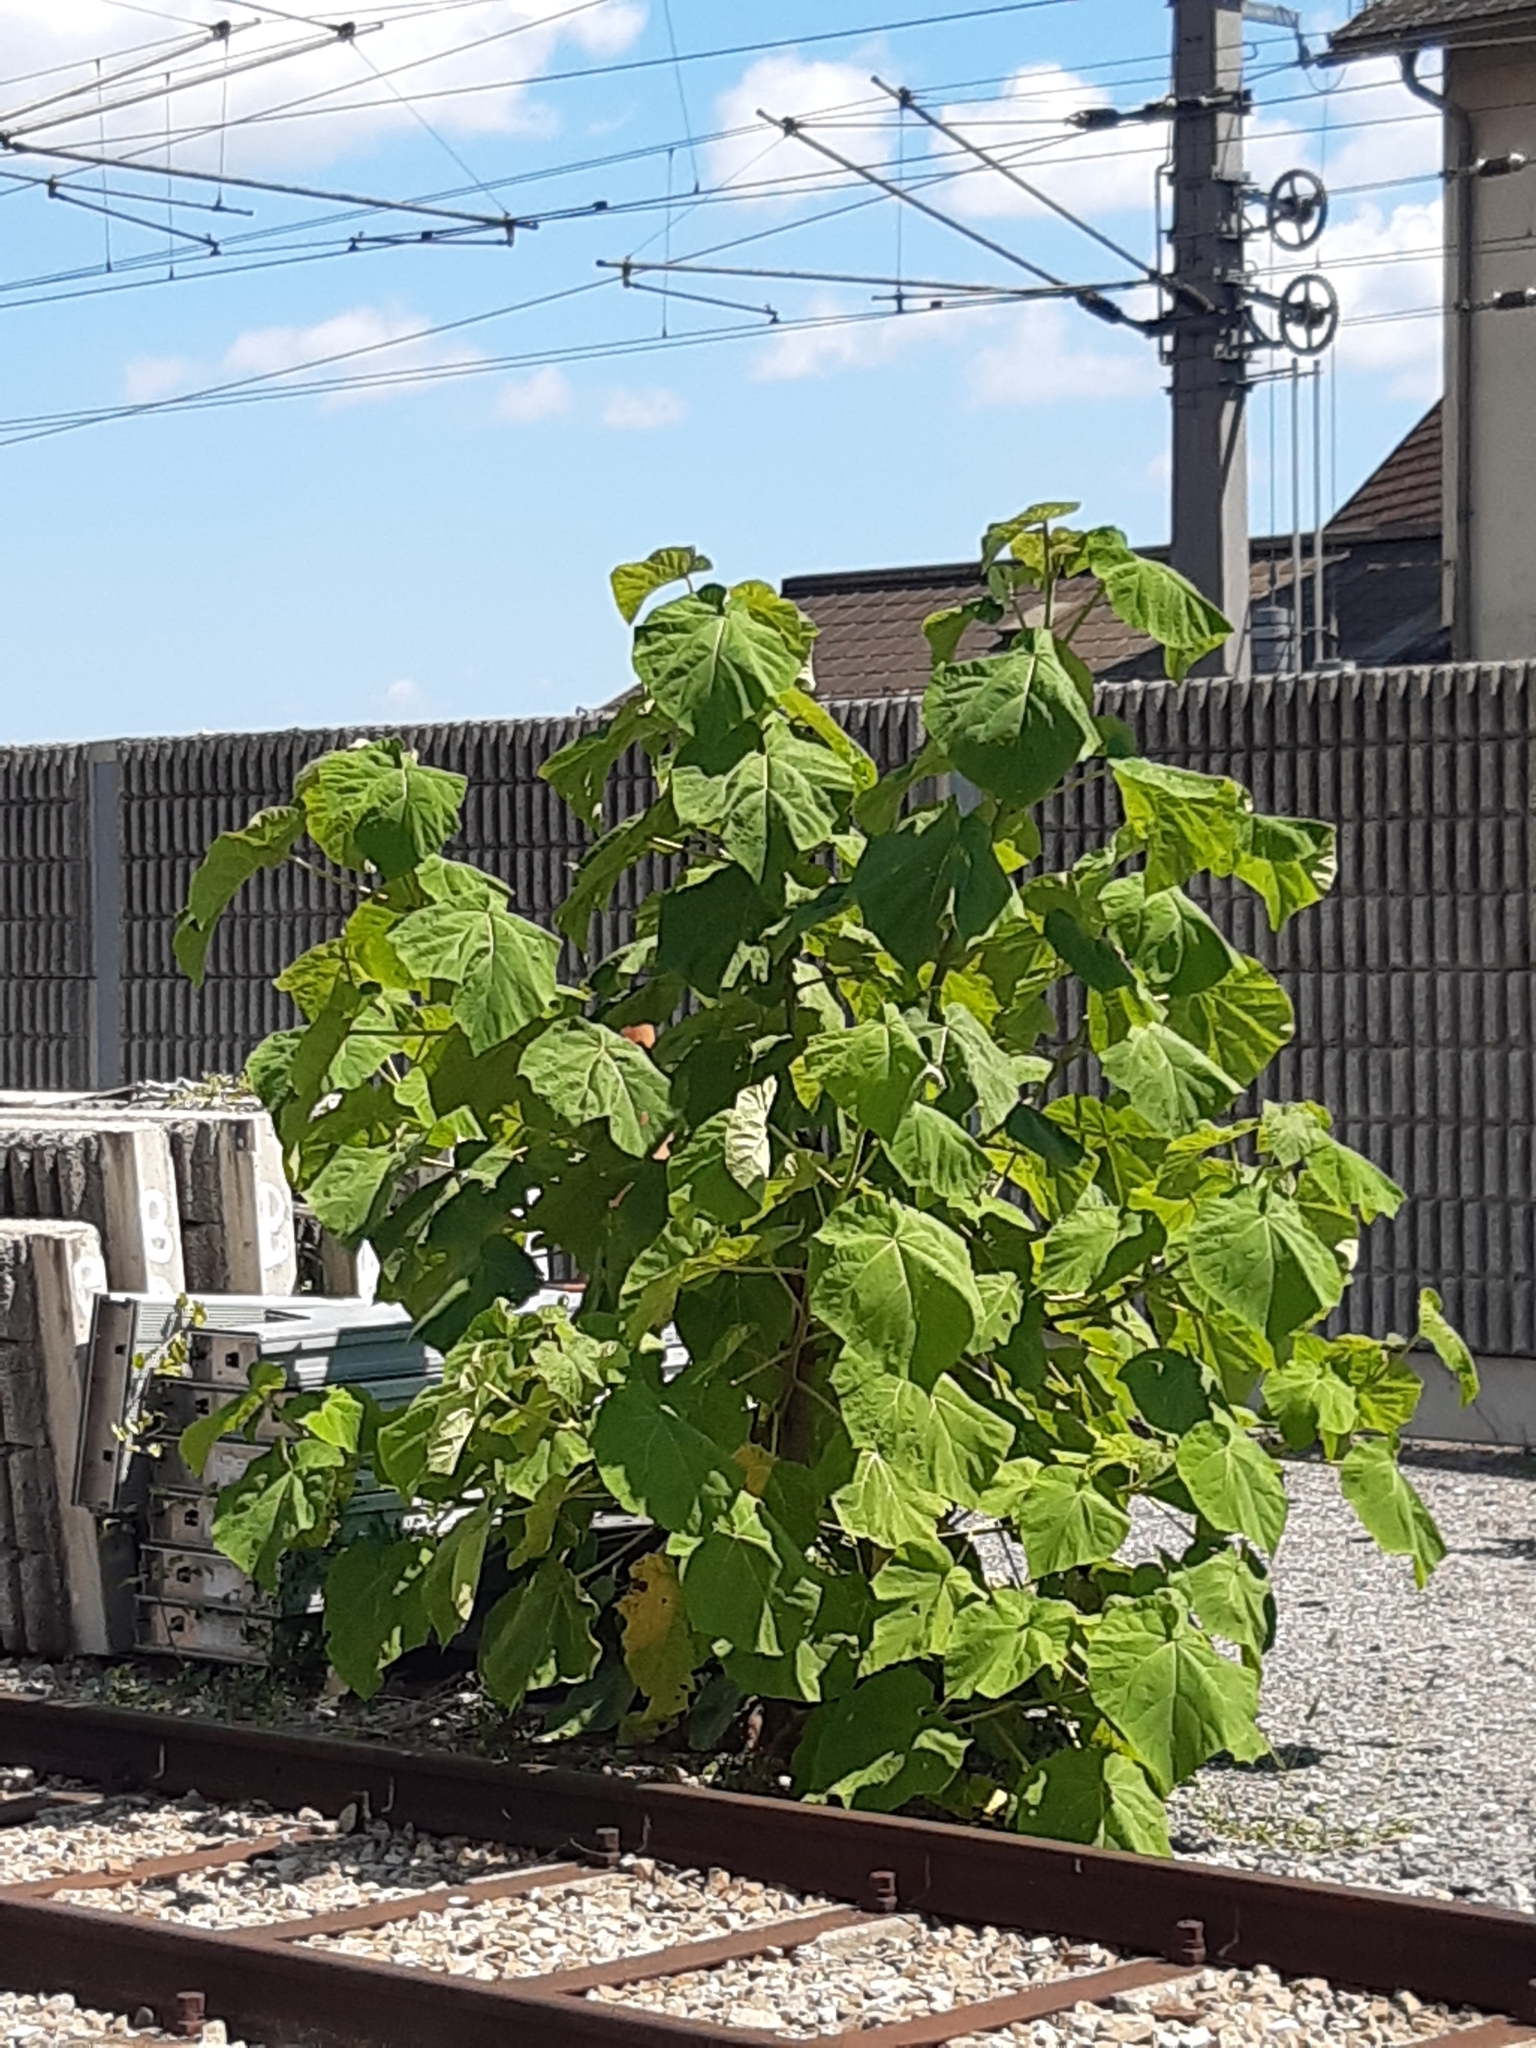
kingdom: Plantae
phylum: Tracheophyta
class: Magnoliopsida
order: Lamiales
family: Paulowniaceae
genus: Paulownia
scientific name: Paulownia tomentosa
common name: Foxglove-tree
